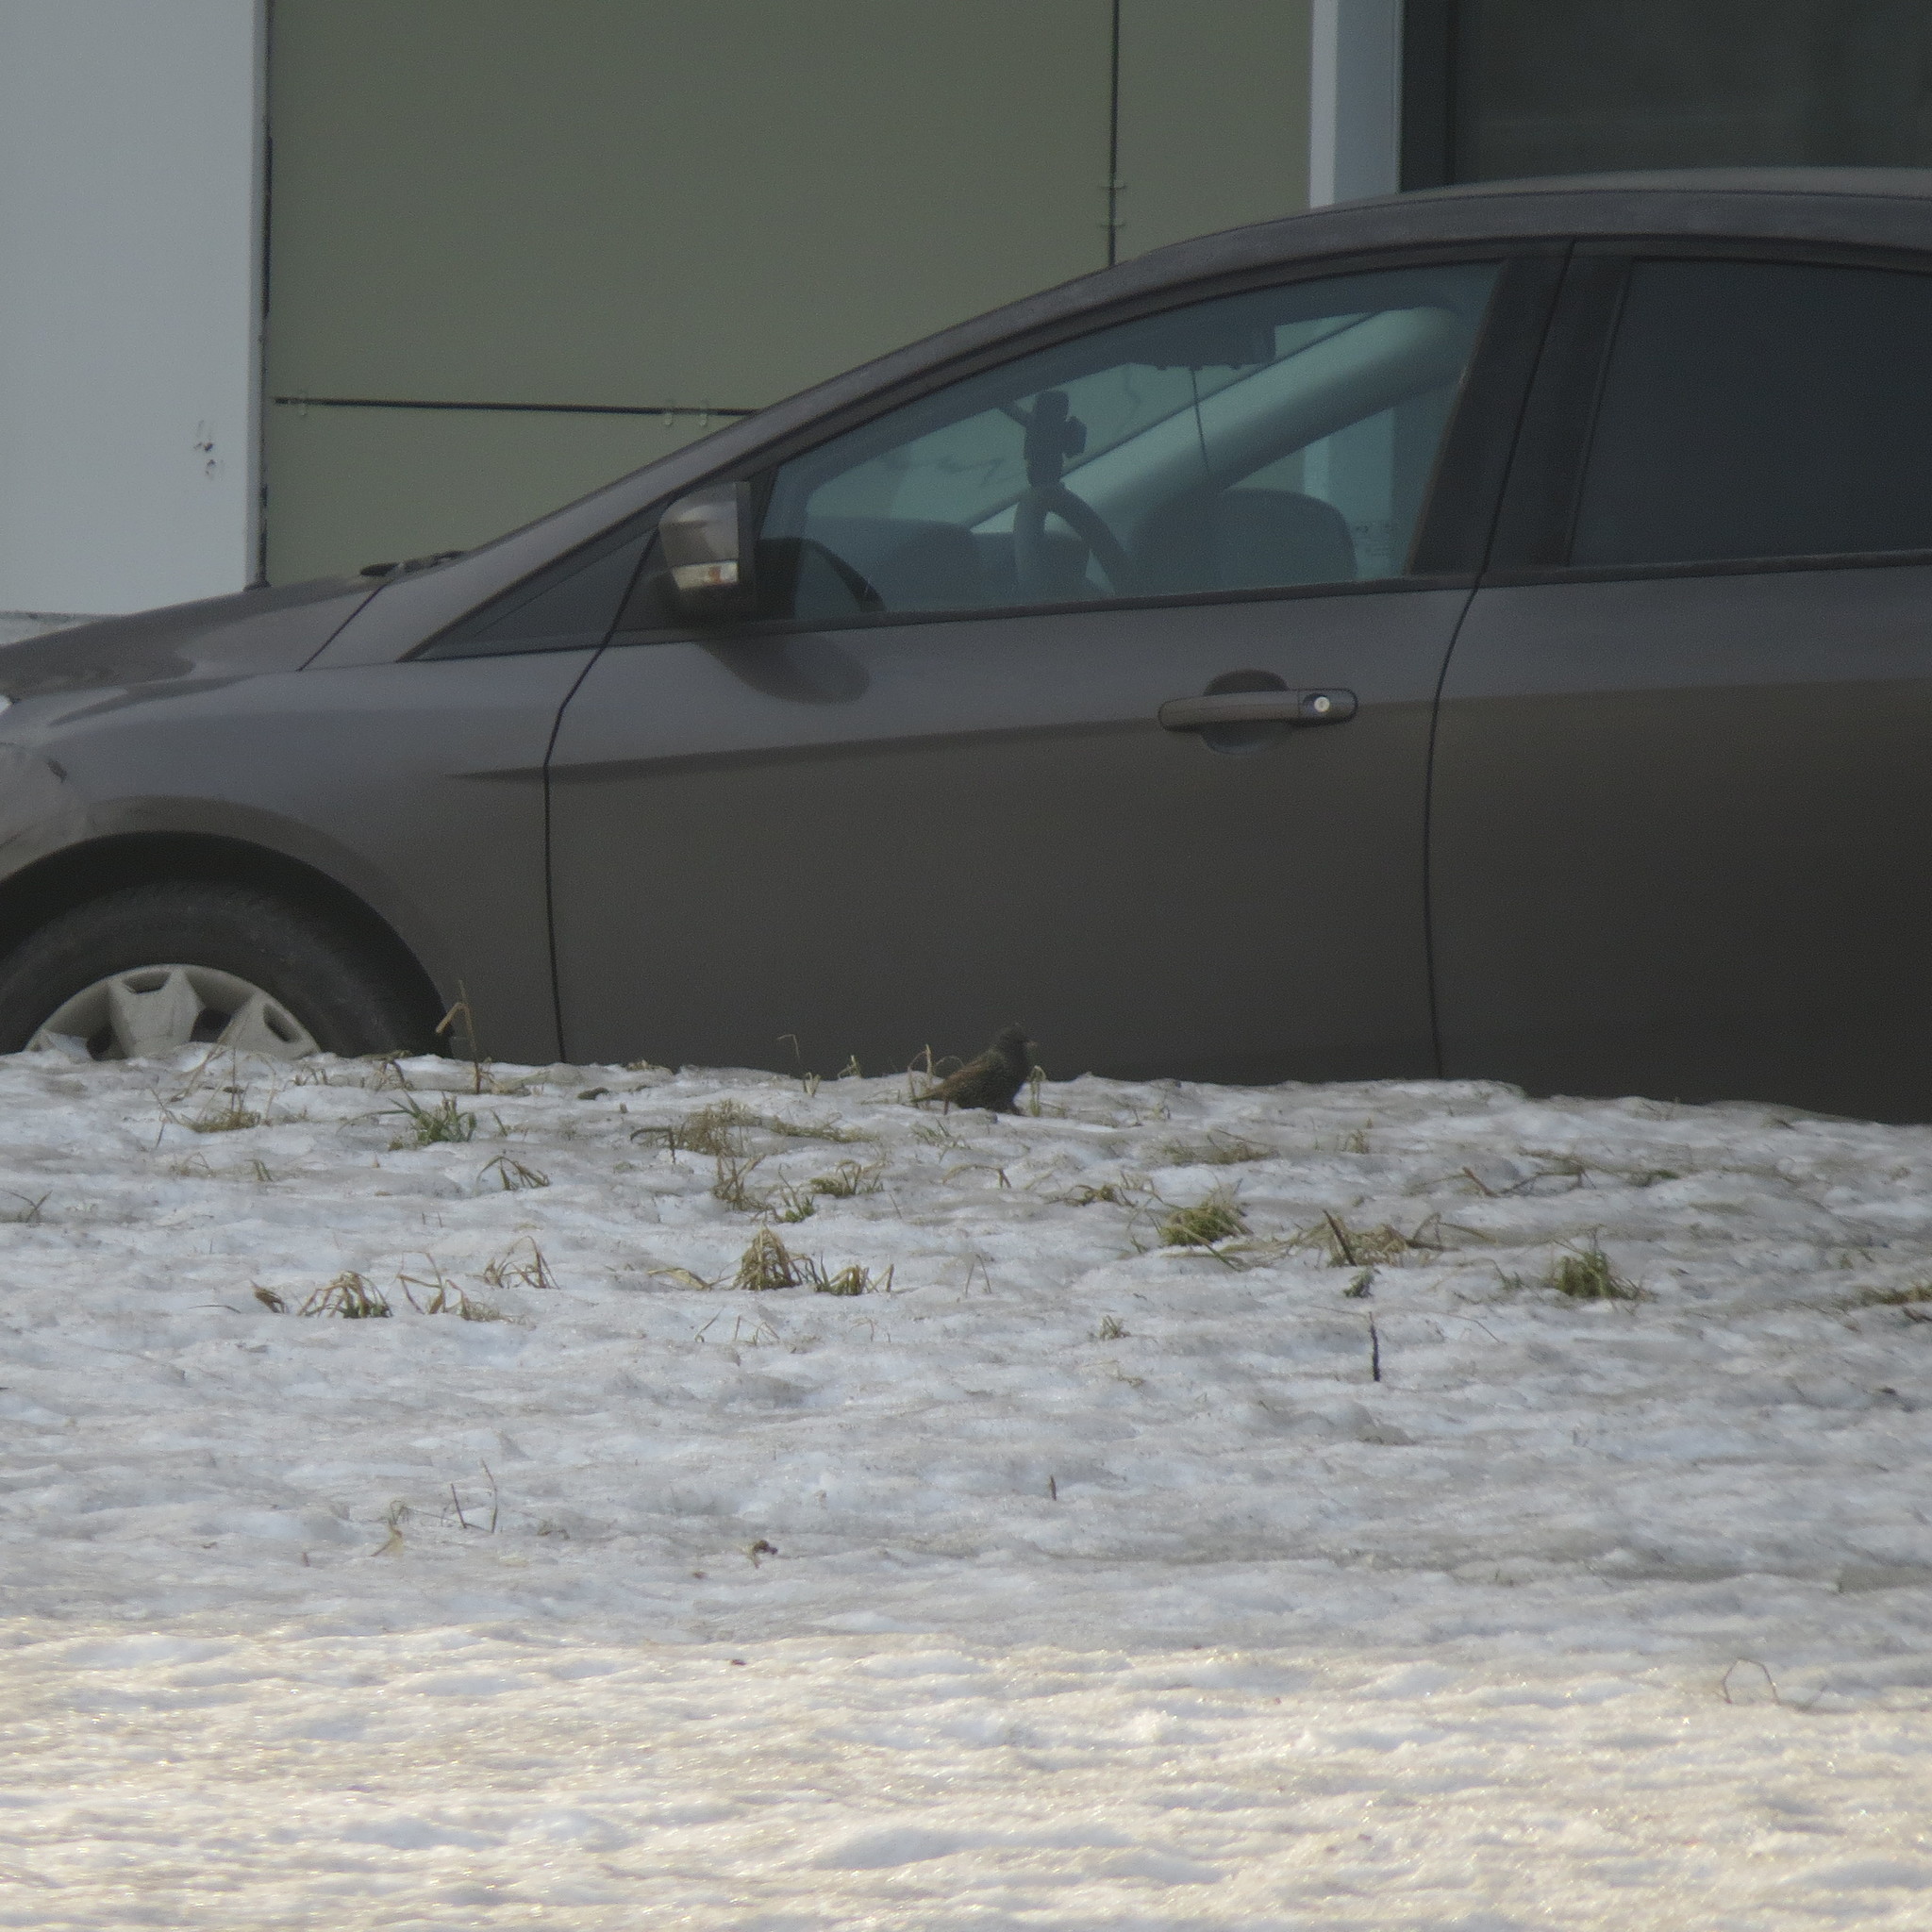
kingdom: Animalia
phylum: Chordata
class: Aves
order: Passeriformes
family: Sturnidae
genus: Sturnus
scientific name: Sturnus vulgaris
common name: Common starling
